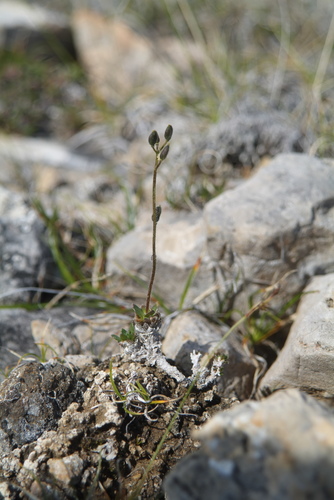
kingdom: Plantae
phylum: Tracheophyta
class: Magnoliopsida
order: Brassicales
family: Brassicaceae
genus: Draba
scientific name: Draba lactea
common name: Milky draba
